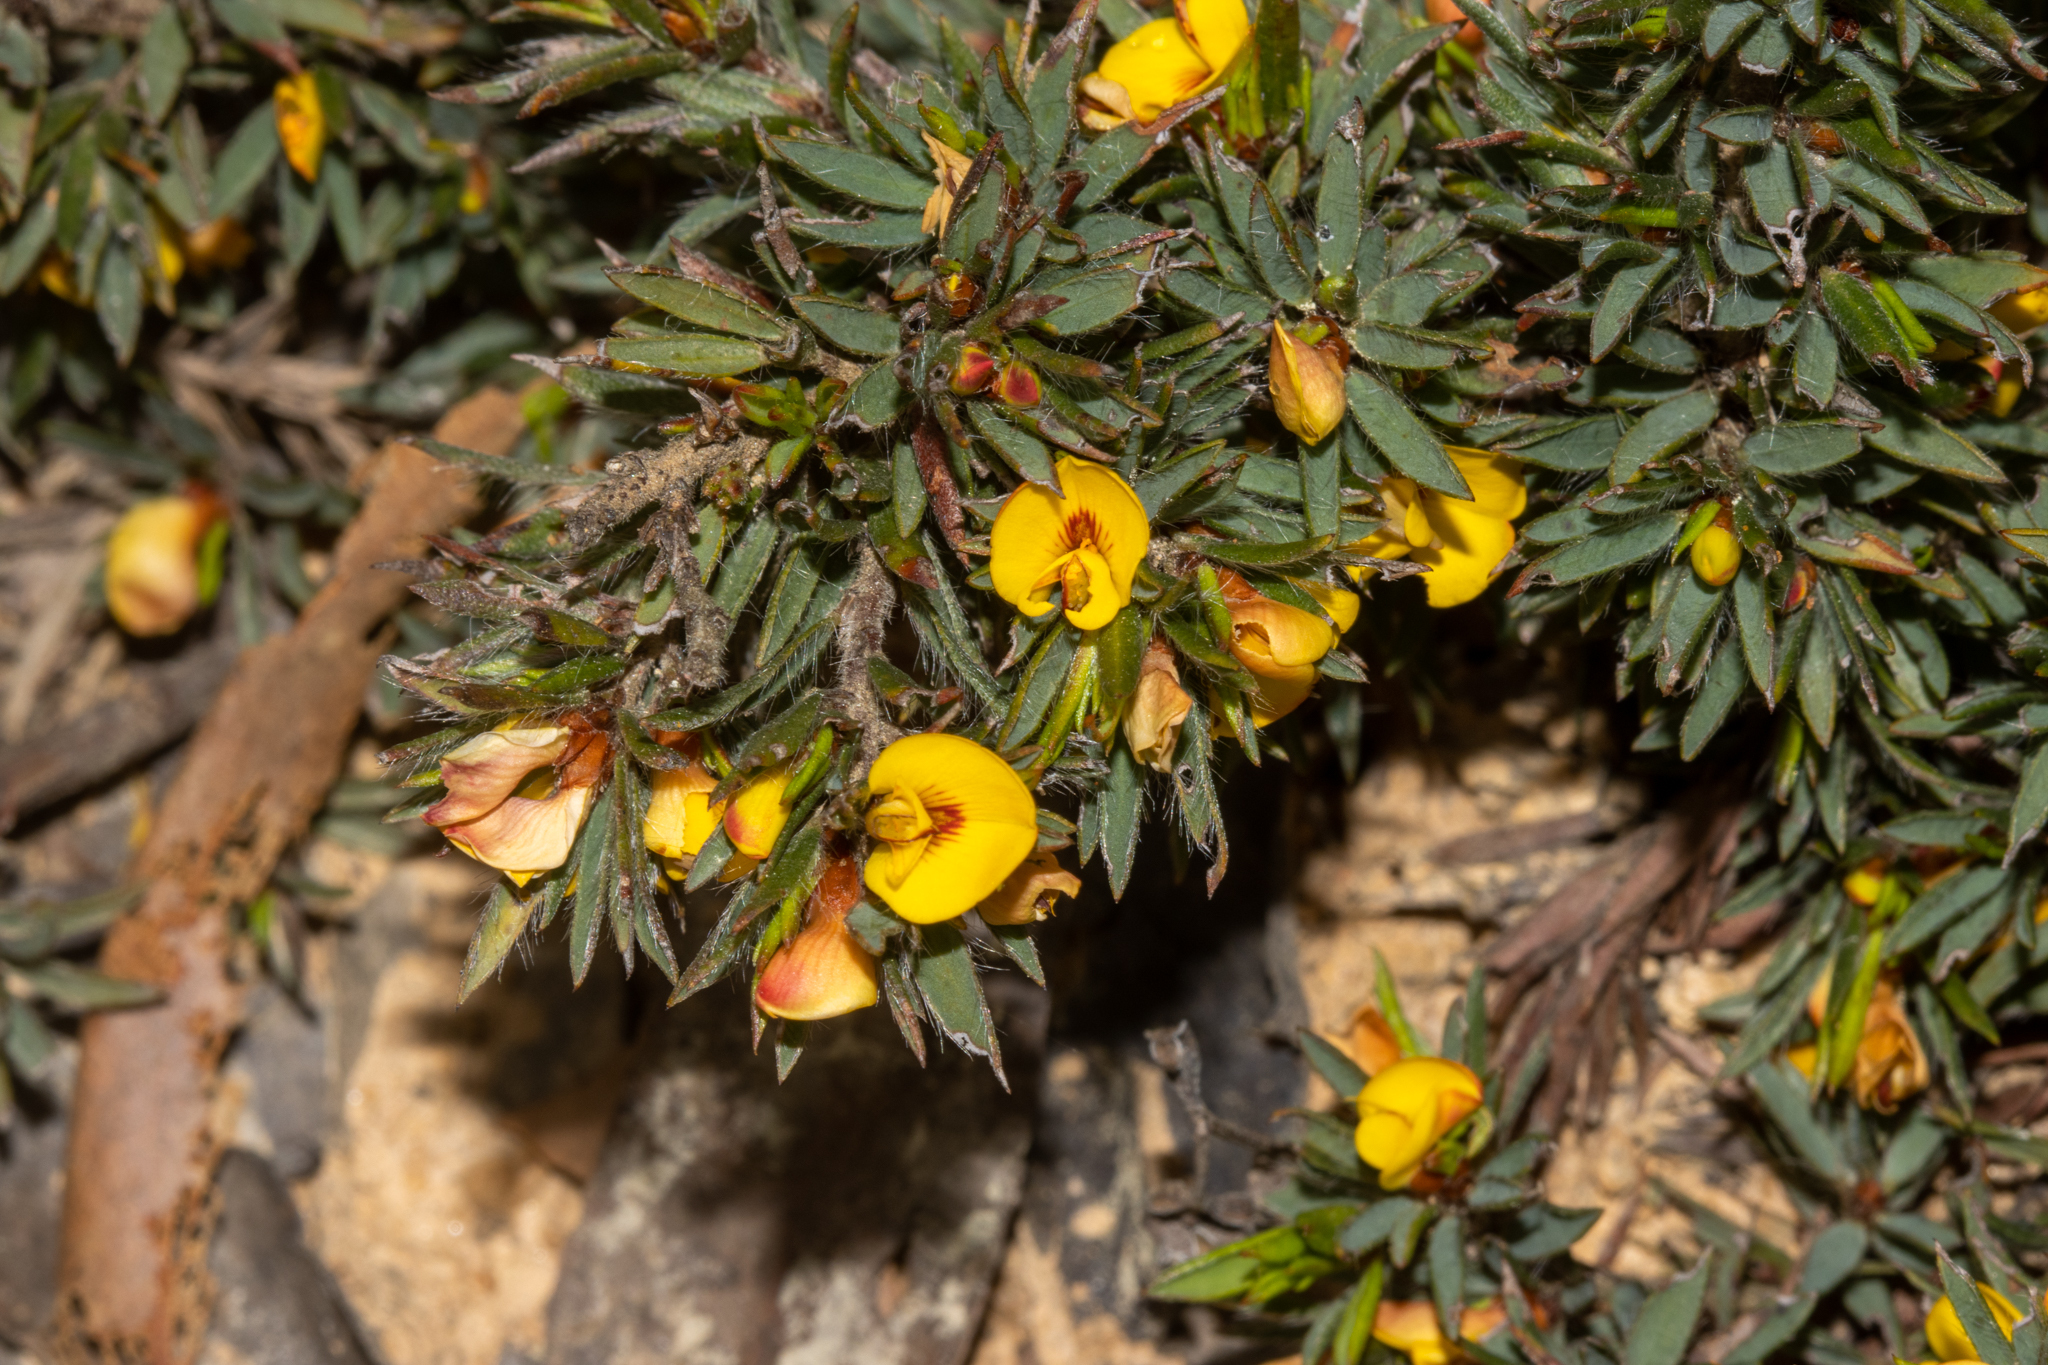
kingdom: Plantae
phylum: Tracheophyta
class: Magnoliopsida
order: Fabales
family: Fabaceae
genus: Pultenaea
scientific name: Pultenaea pedunculata
